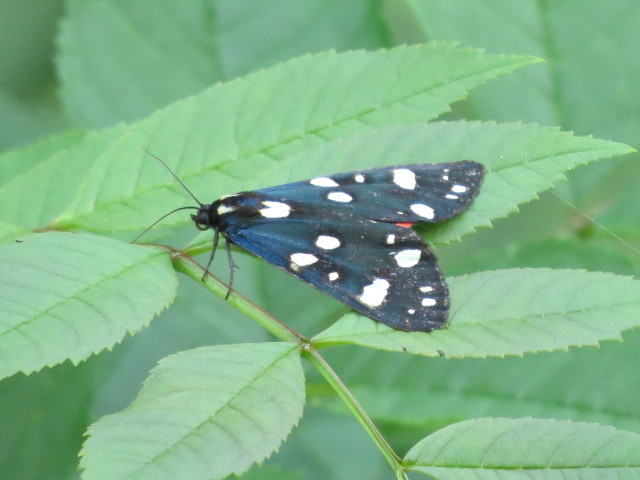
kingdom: Animalia
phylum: Arthropoda
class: Insecta
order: Lepidoptera
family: Erebidae
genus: Callimorpha
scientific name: Callimorpha dominula
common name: Scarlet tiger
